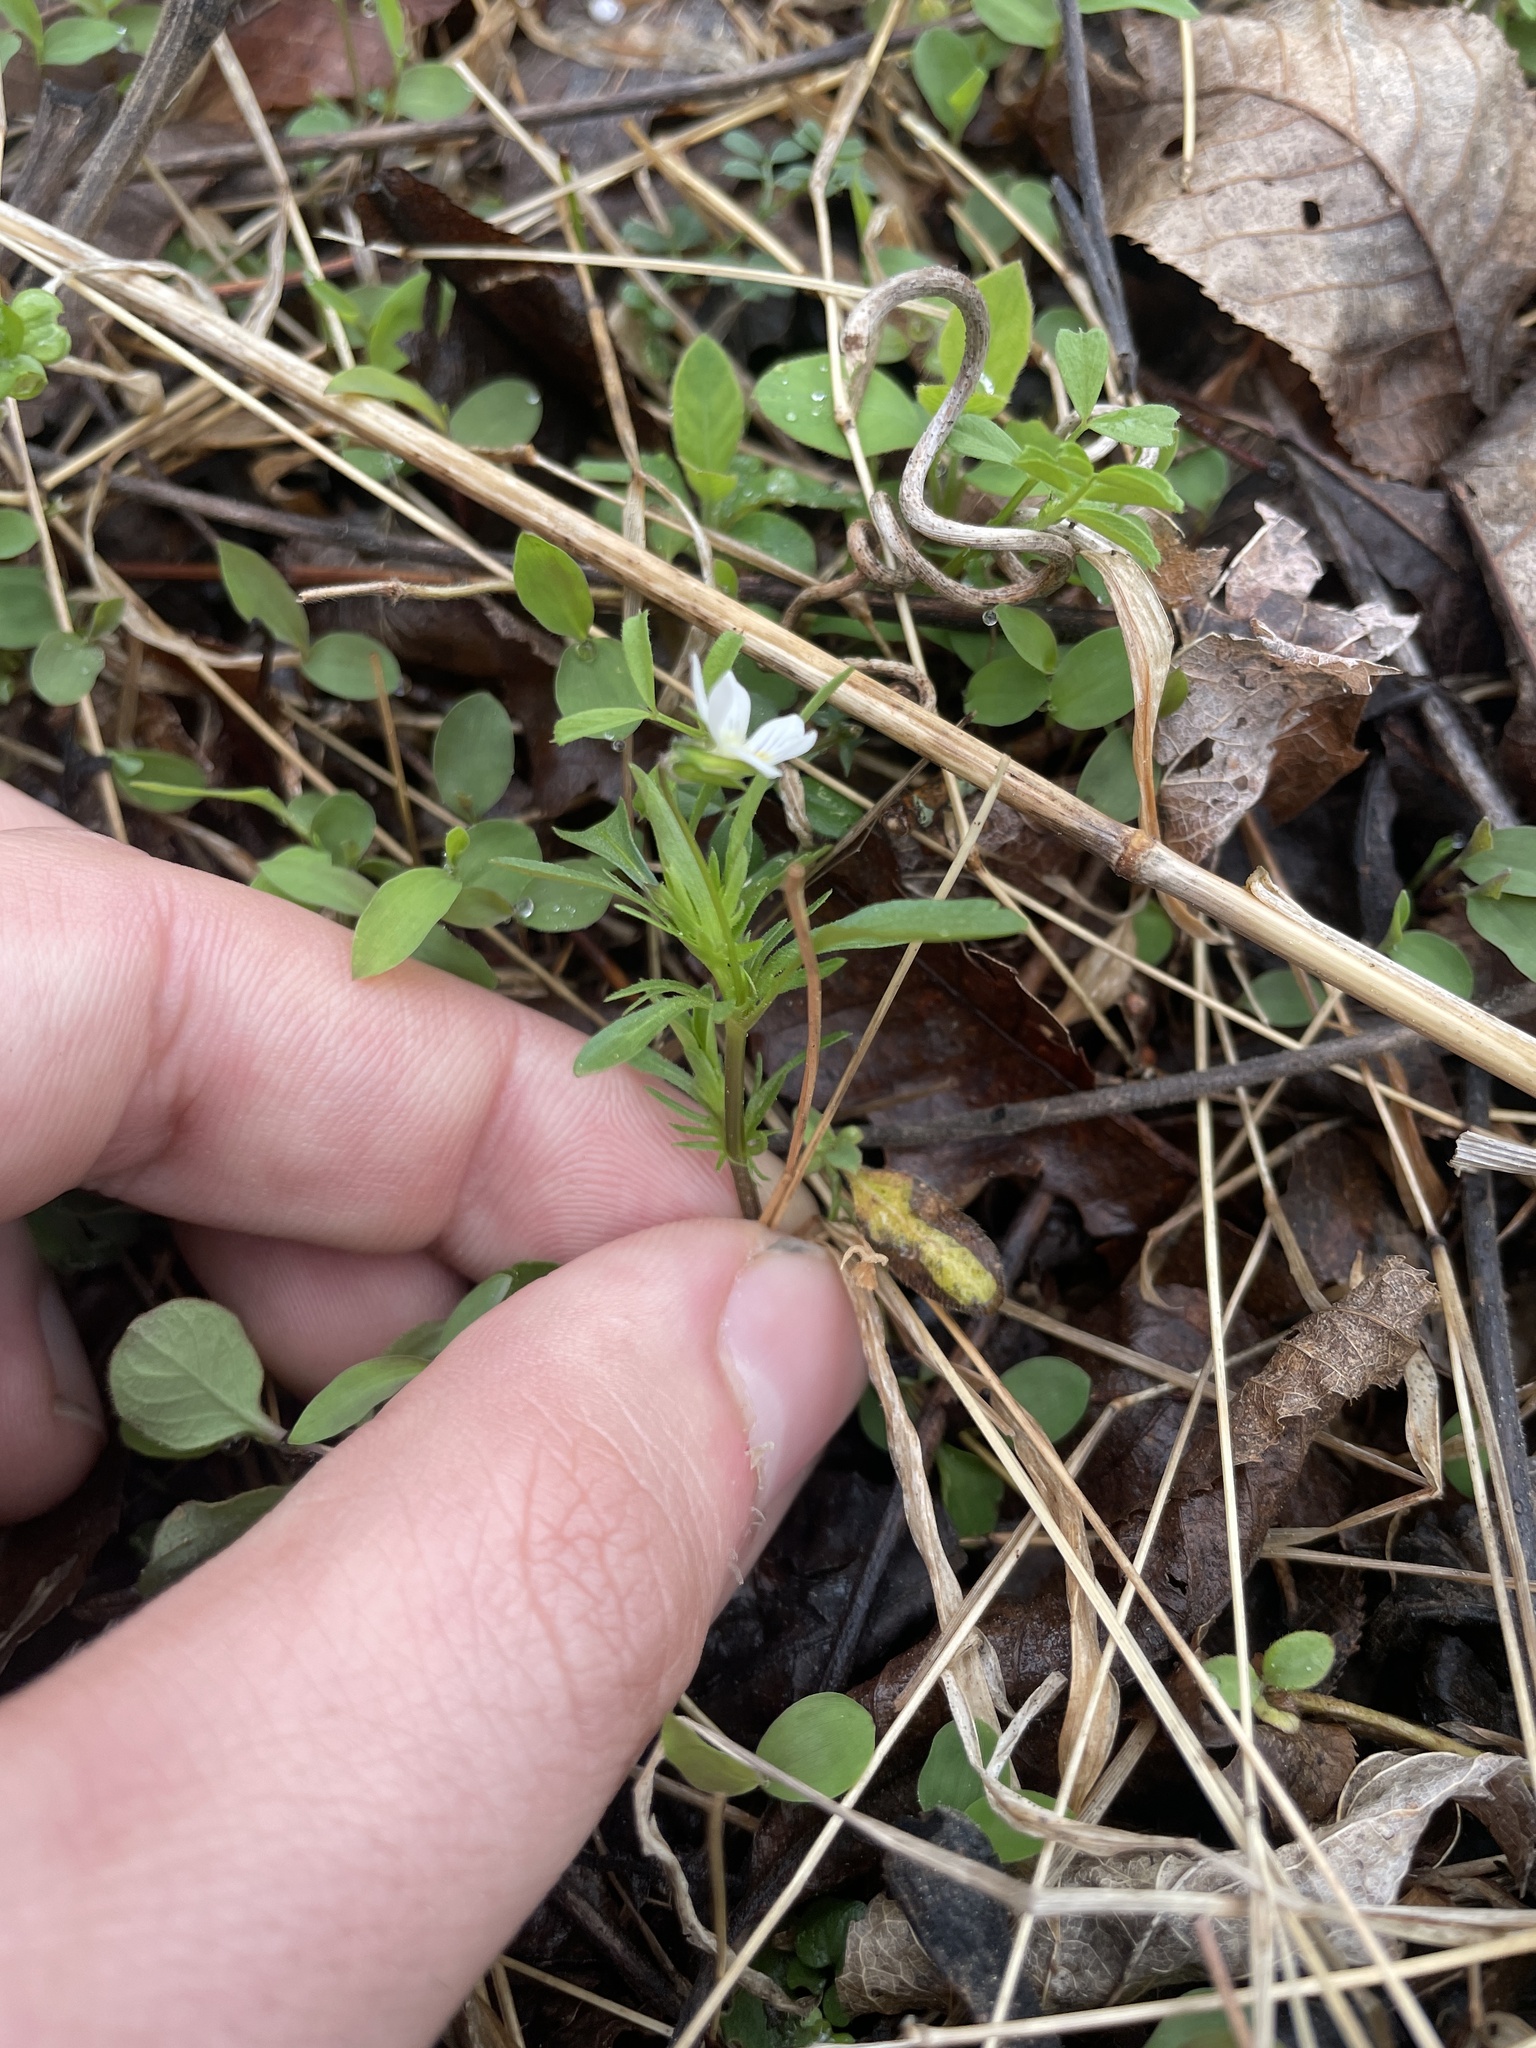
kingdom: Plantae
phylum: Tracheophyta
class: Magnoliopsida
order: Malpighiales
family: Violaceae
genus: Viola
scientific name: Viola rafinesquei
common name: American field pansy
